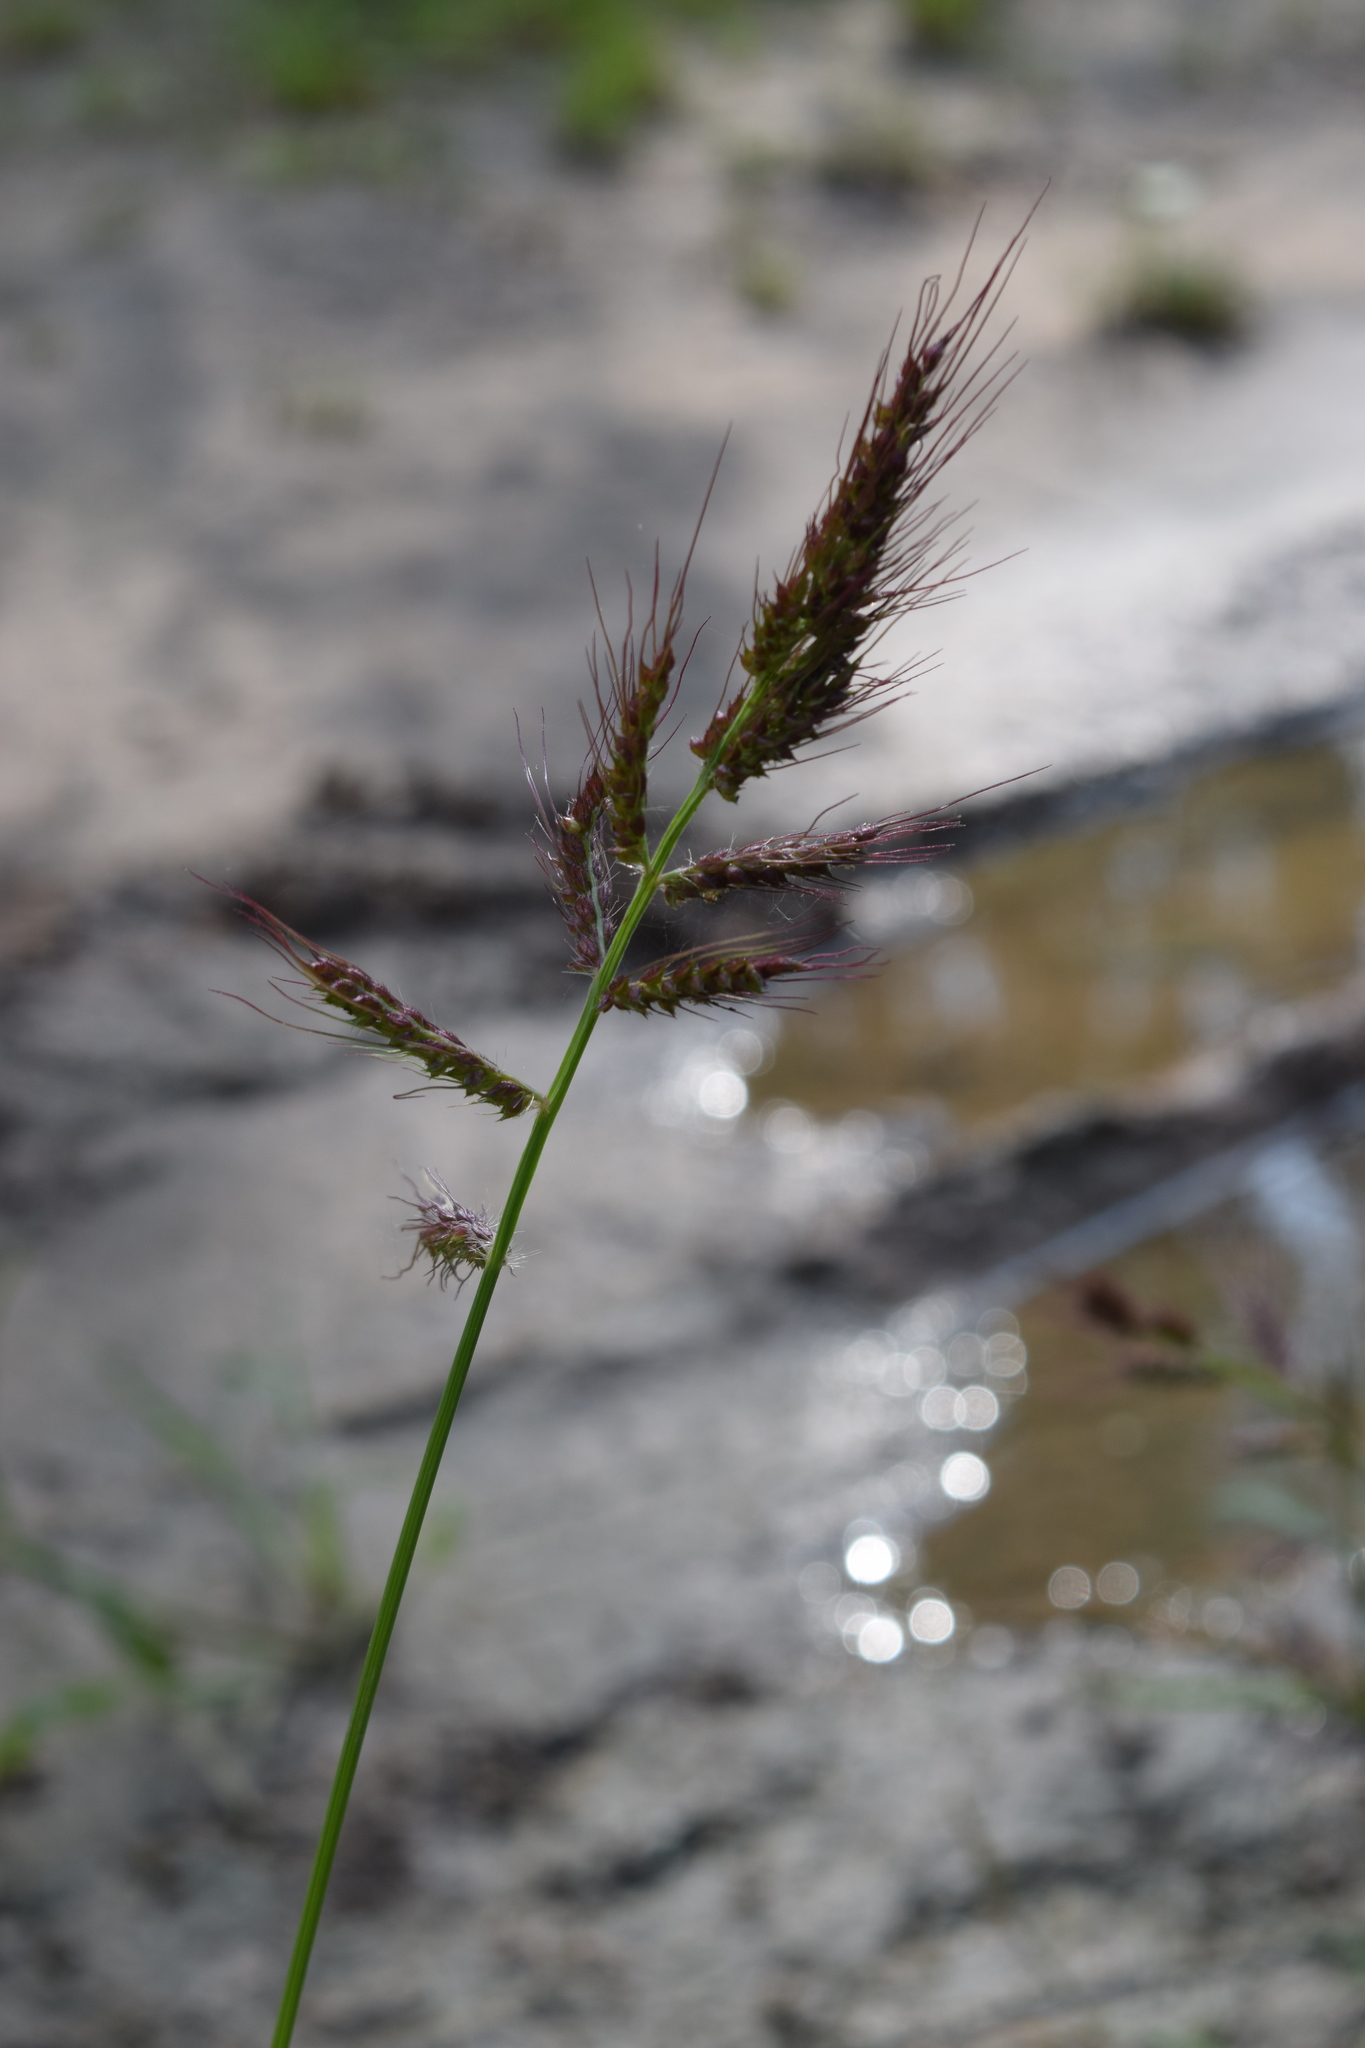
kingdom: Plantae
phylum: Tracheophyta
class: Liliopsida
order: Poales
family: Poaceae
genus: Echinochloa
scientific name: Echinochloa crus-galli
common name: Cockspur
